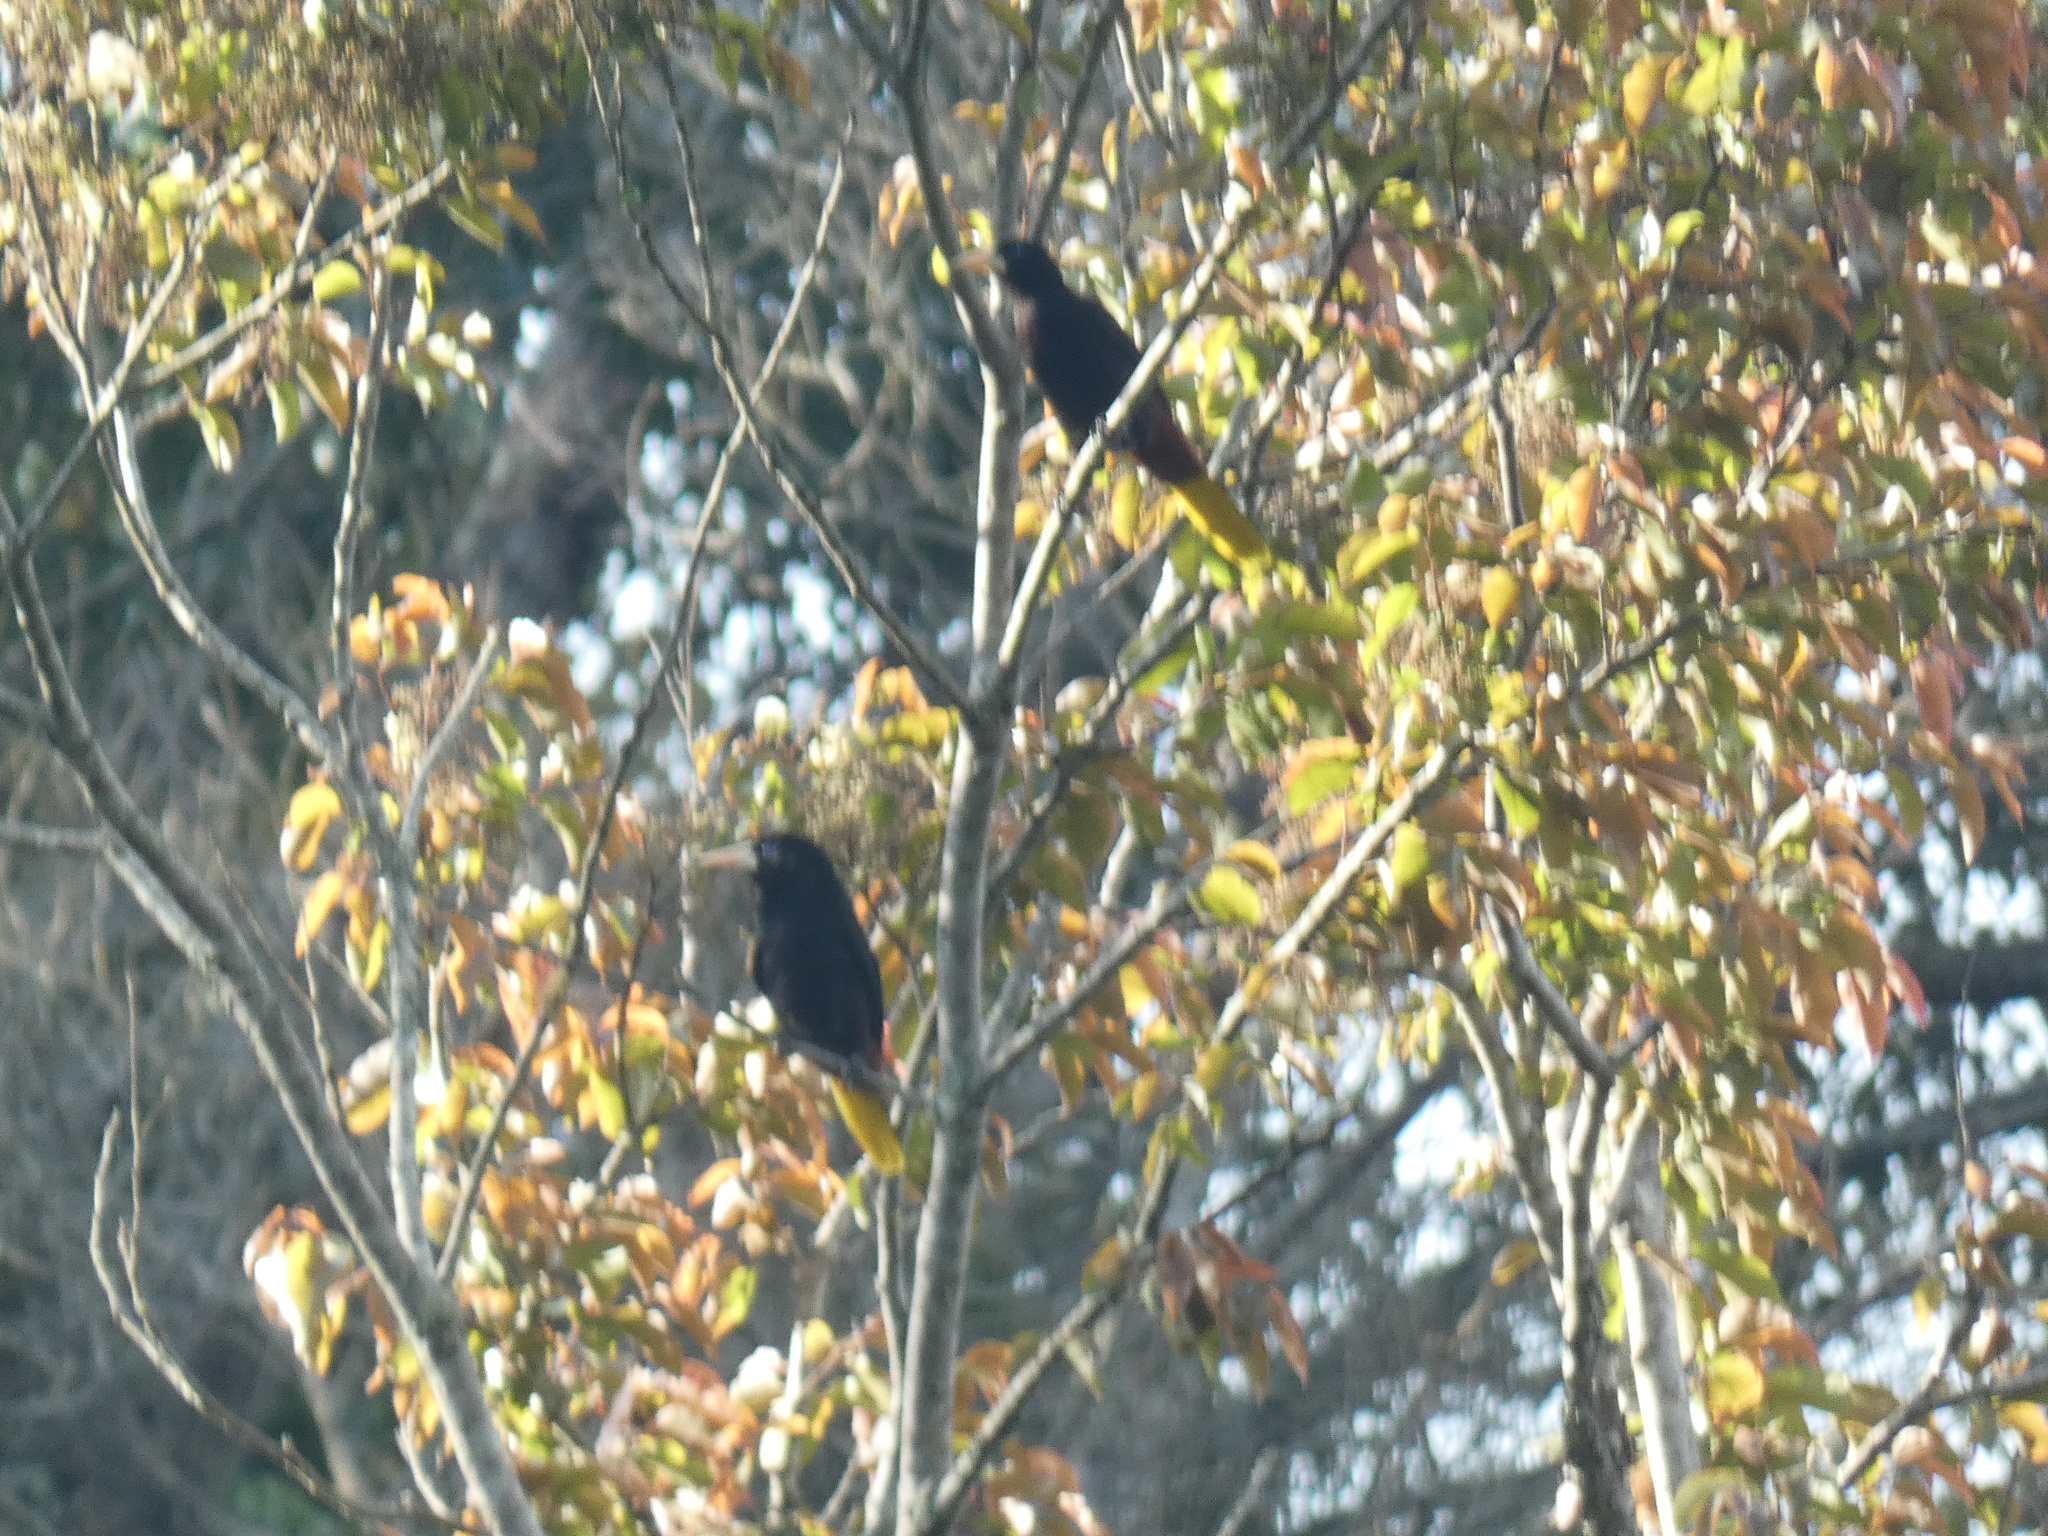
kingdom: Animalia
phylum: Chordata
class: Aves
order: Passeriformes
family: Icteridae
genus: Psarocolius
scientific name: Psarocolius decumanus
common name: Crested oropendola
